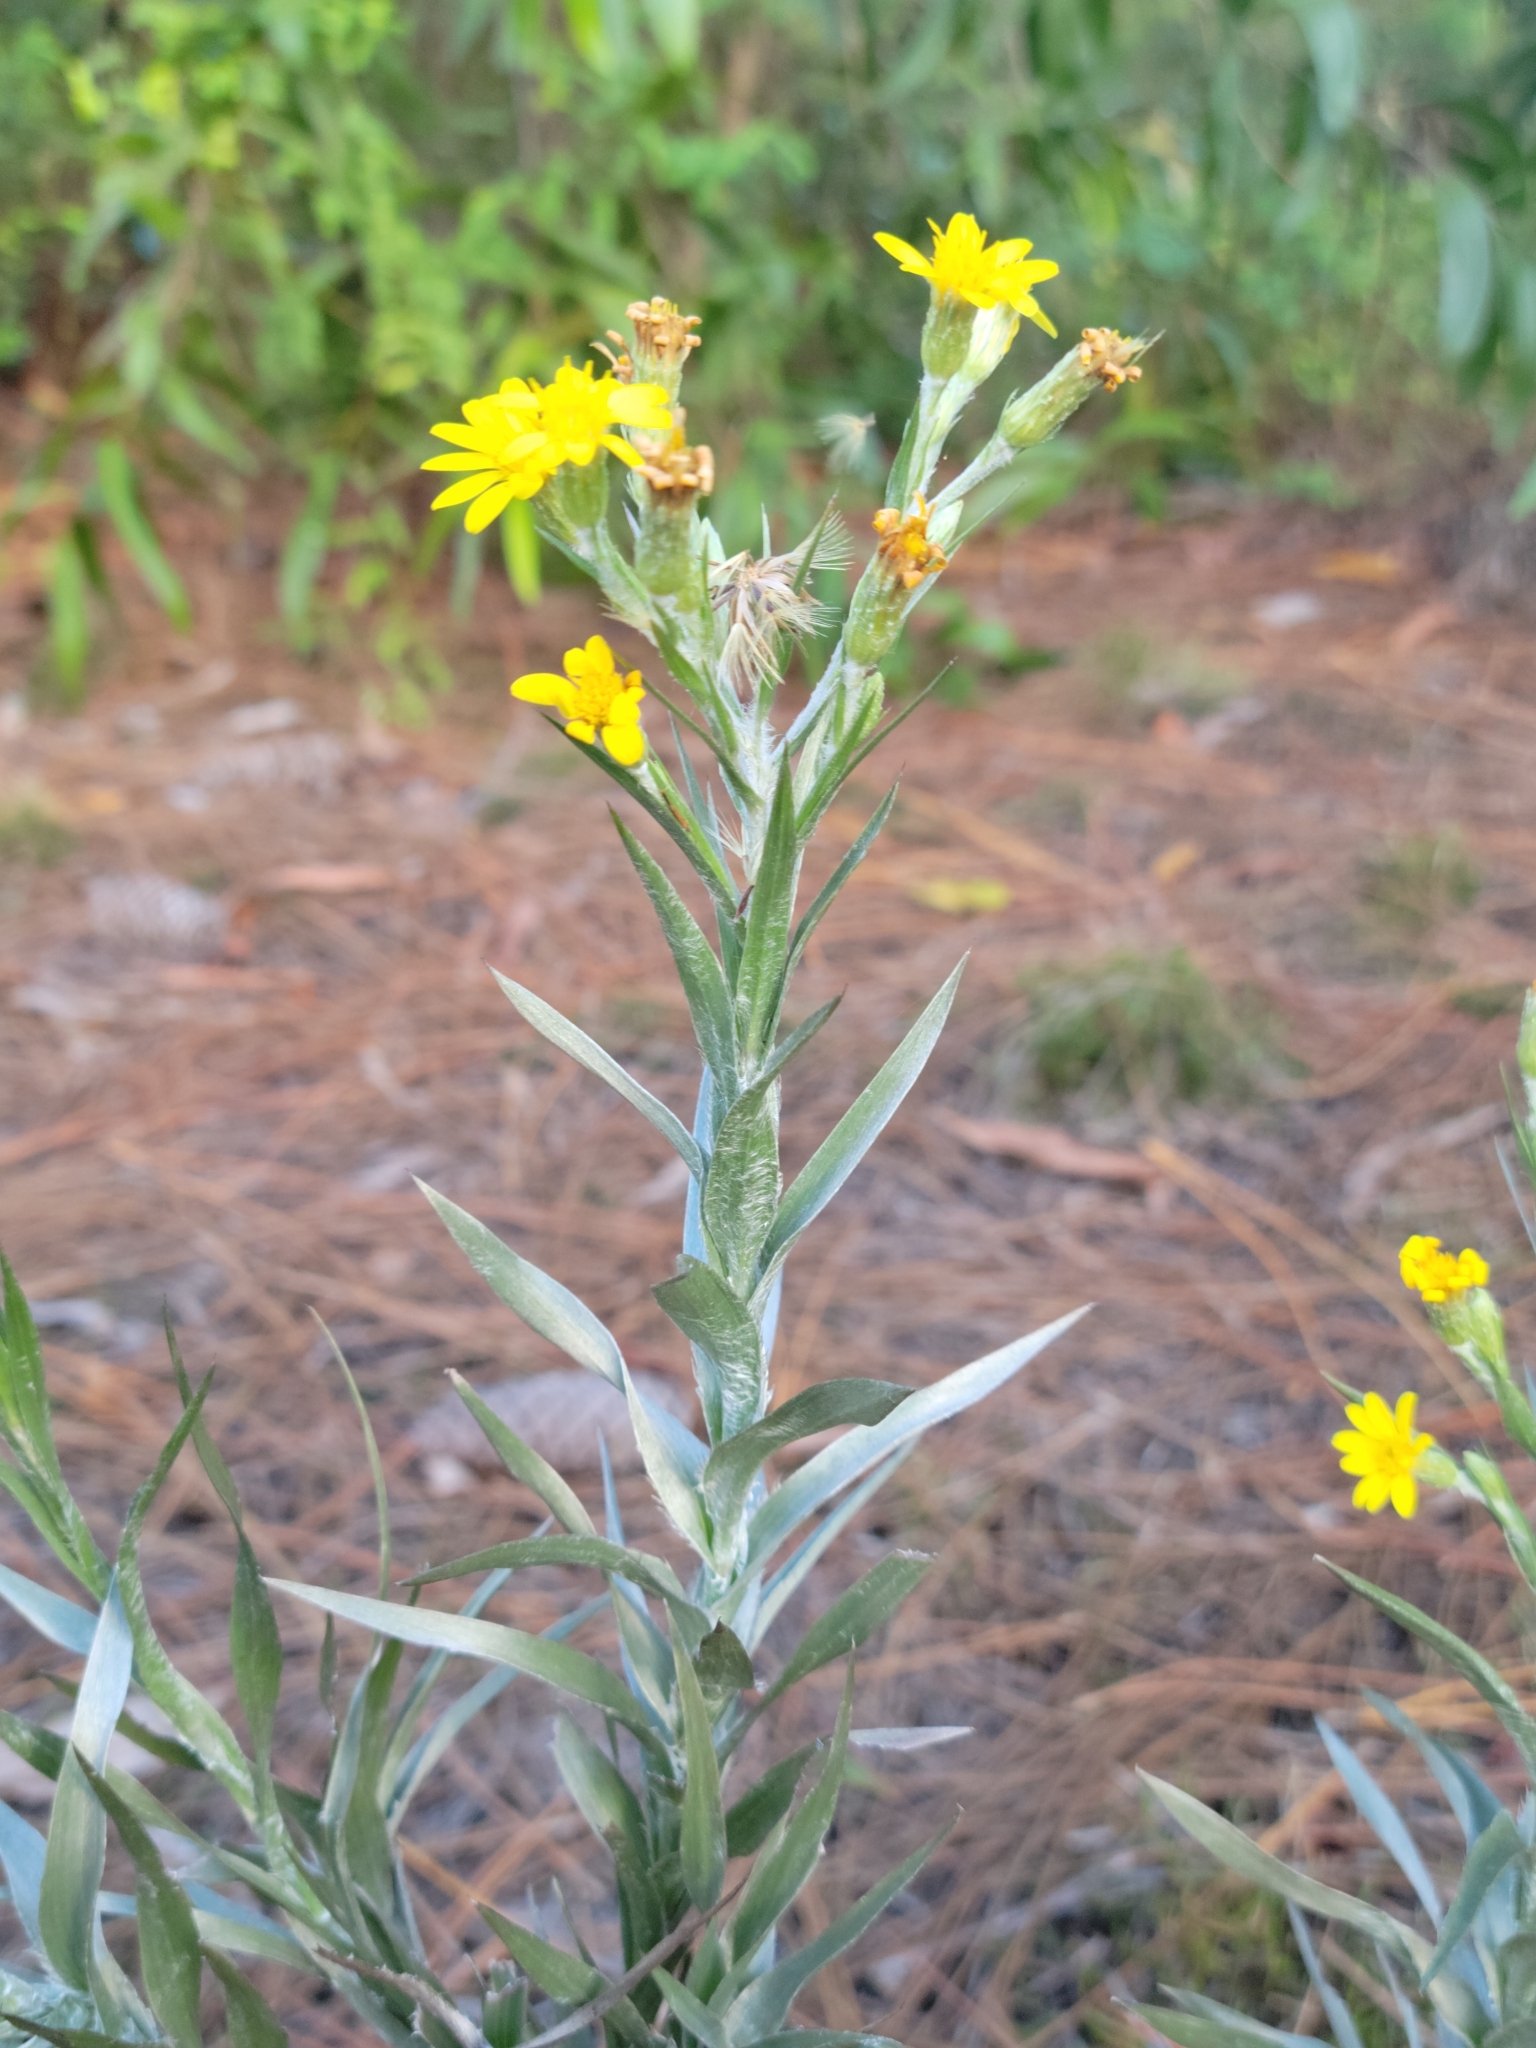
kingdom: Plantae
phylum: Tracheophyta
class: Magnoliopsida
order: Asterales
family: Asteraceae
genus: Pityopsis
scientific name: Pityopsis latifolia
